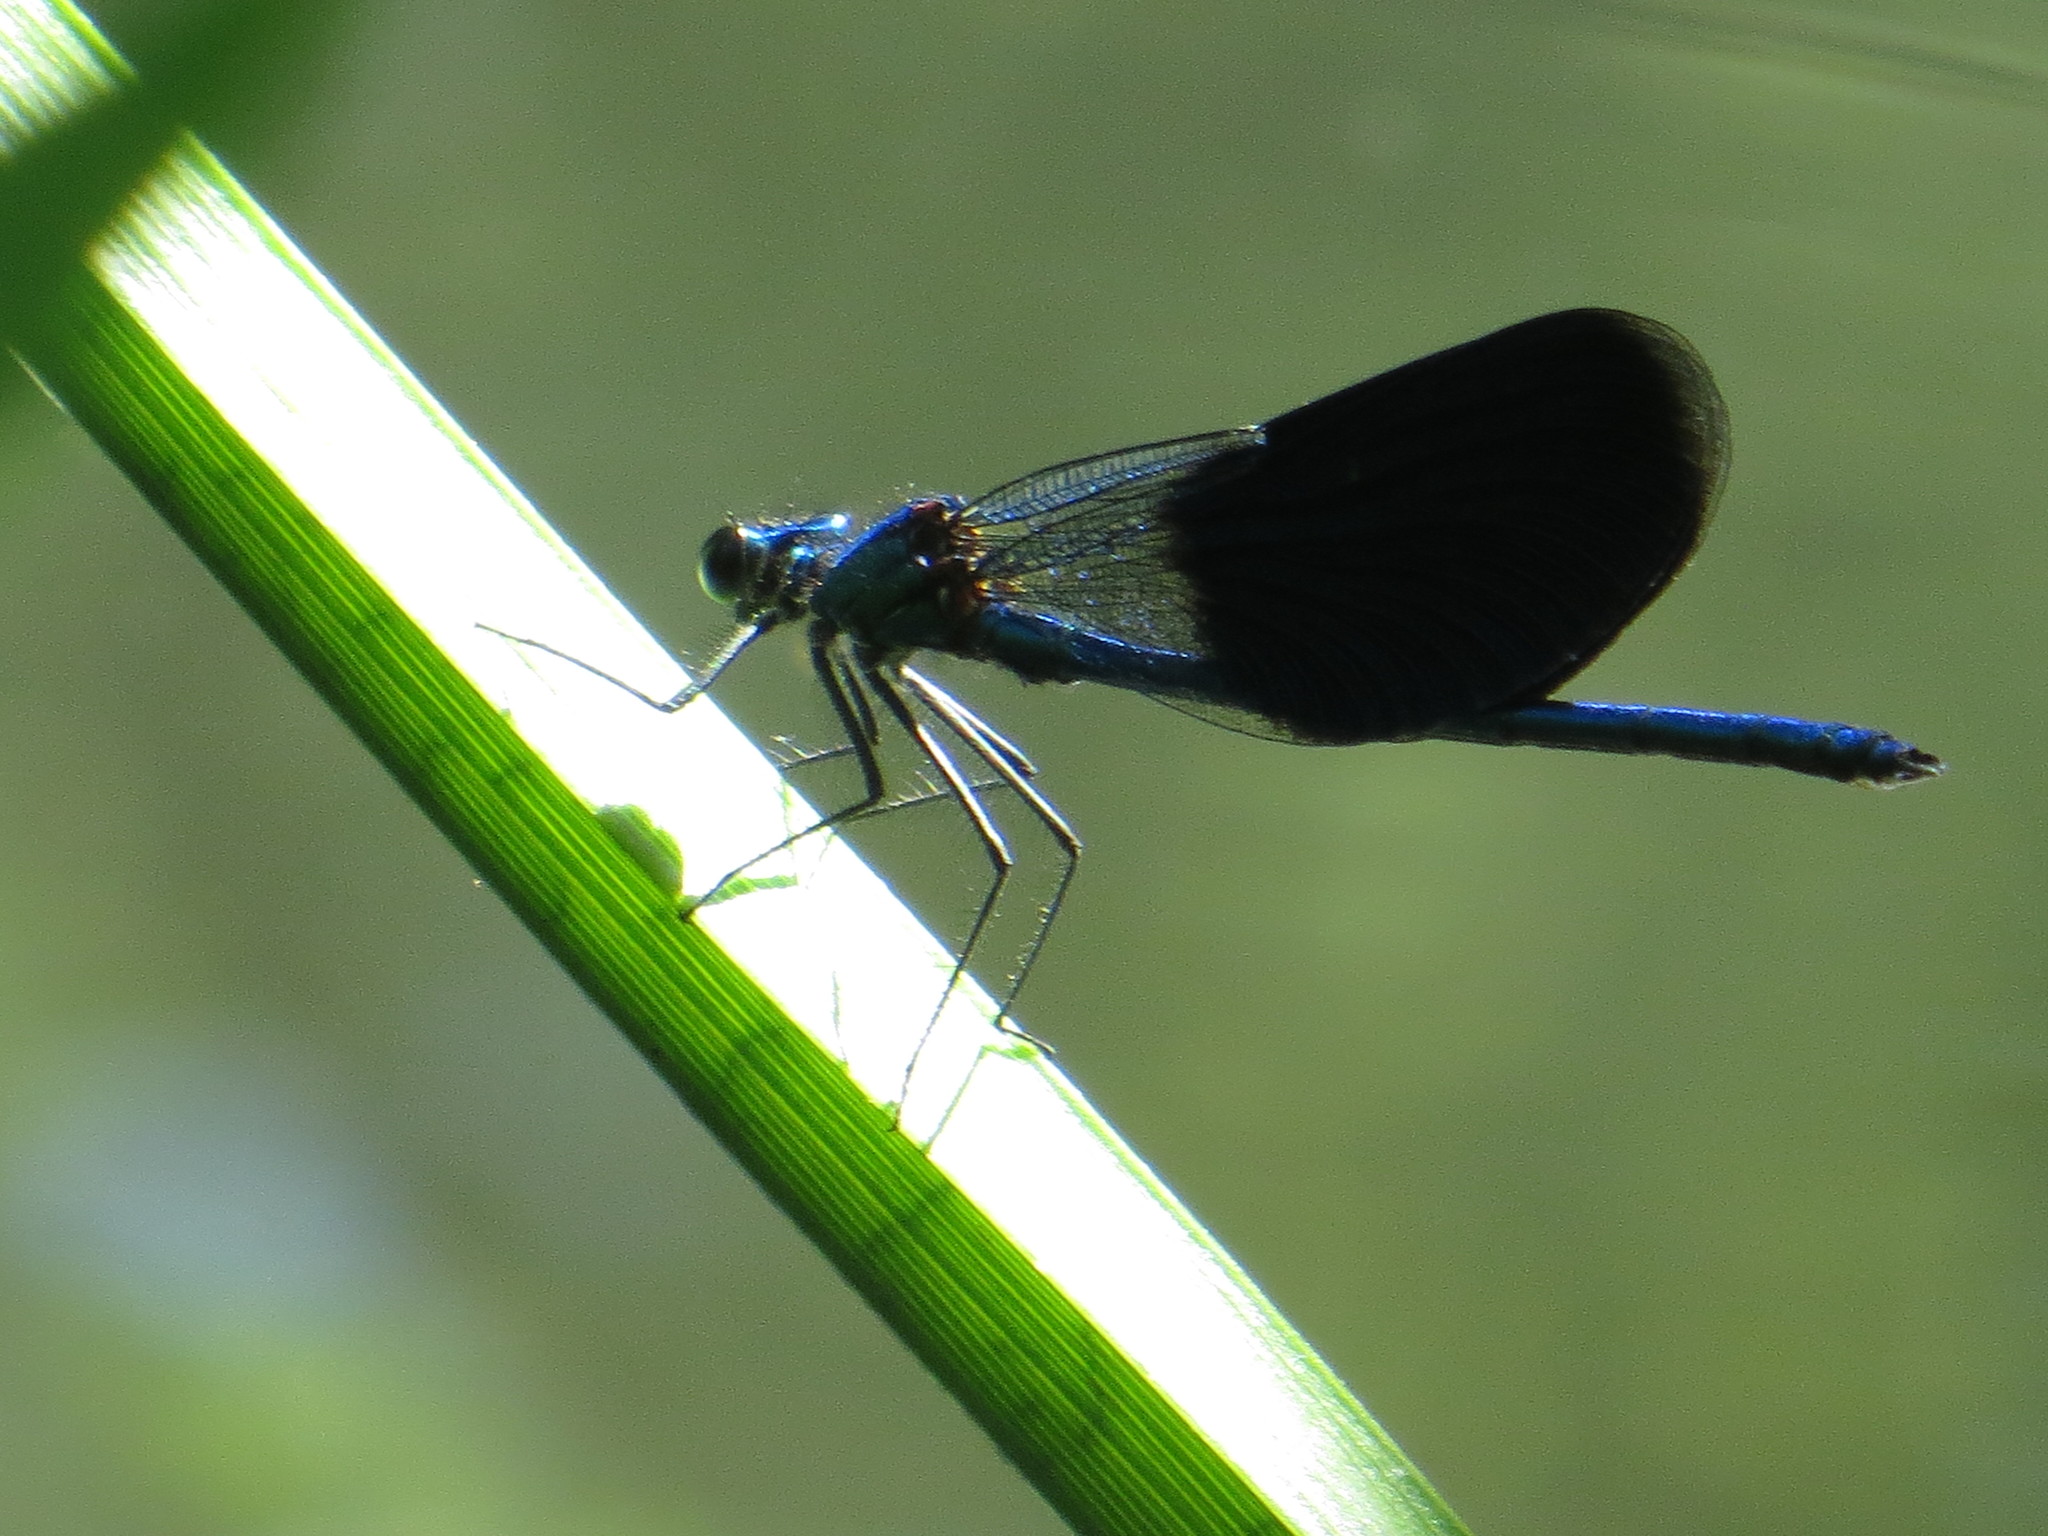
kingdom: Animalia
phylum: Arthropoda
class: Insecta
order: Odonata
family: Calopterygidae
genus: Calopteryx
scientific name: Calopteryx splendens
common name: Banded demoiselle
